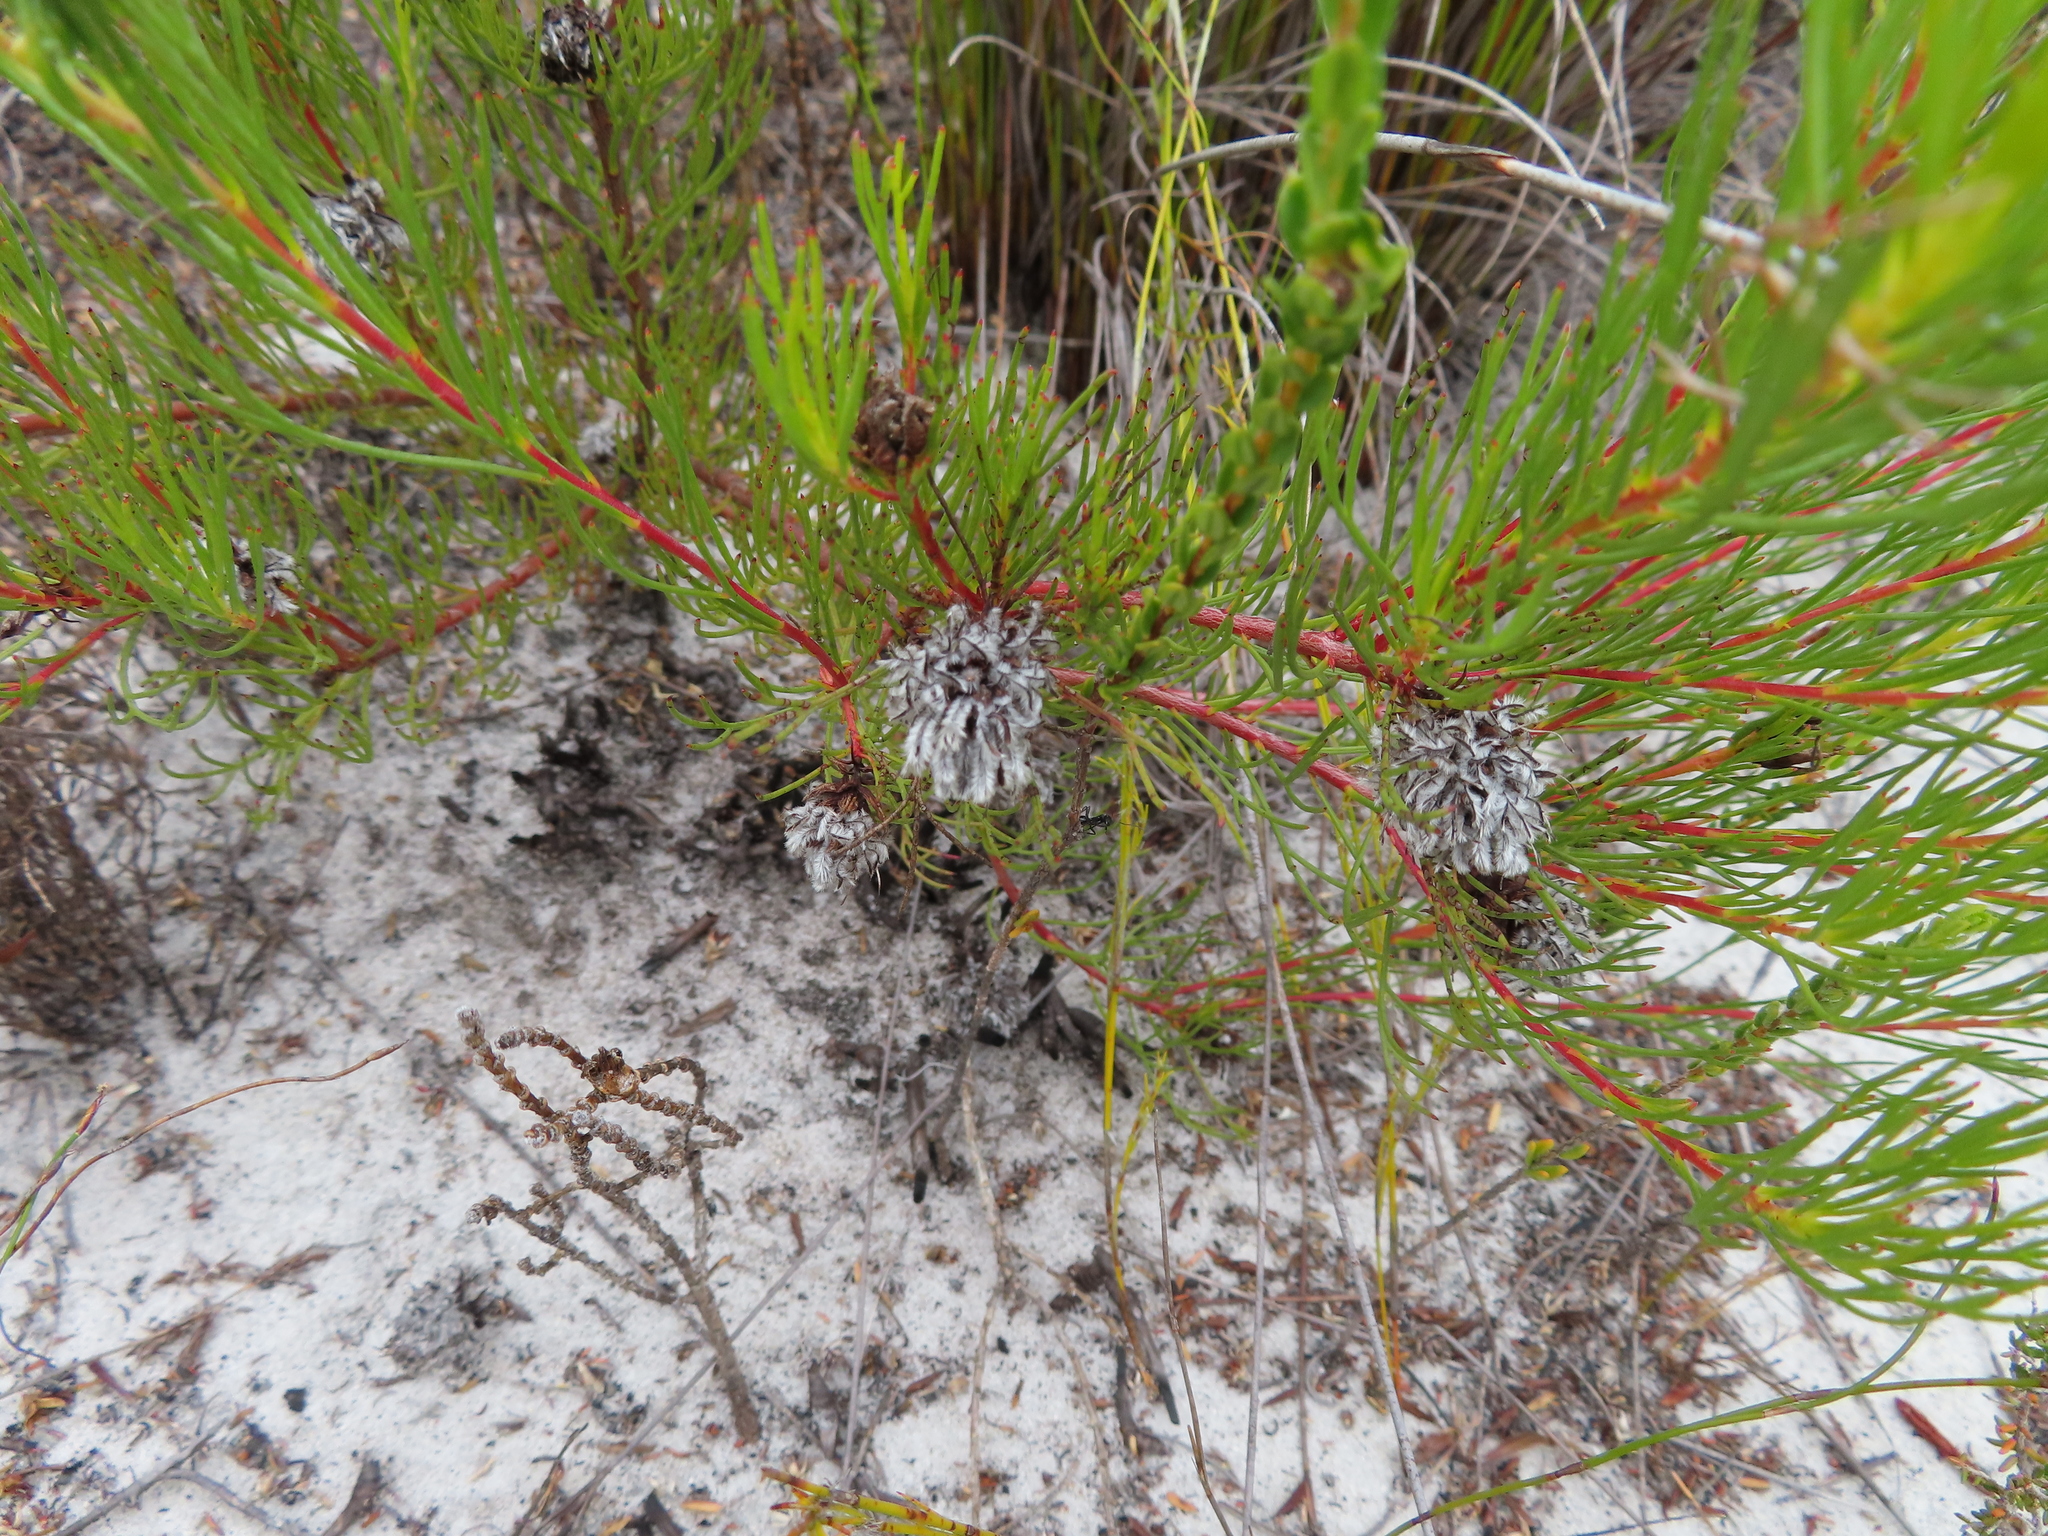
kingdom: Plantae
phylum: Tracheophyta
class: Magnoliopsida
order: Proteales
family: Proteaceae
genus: Serruria
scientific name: Serruria rubricaulis
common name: Red-stem spiderhead
